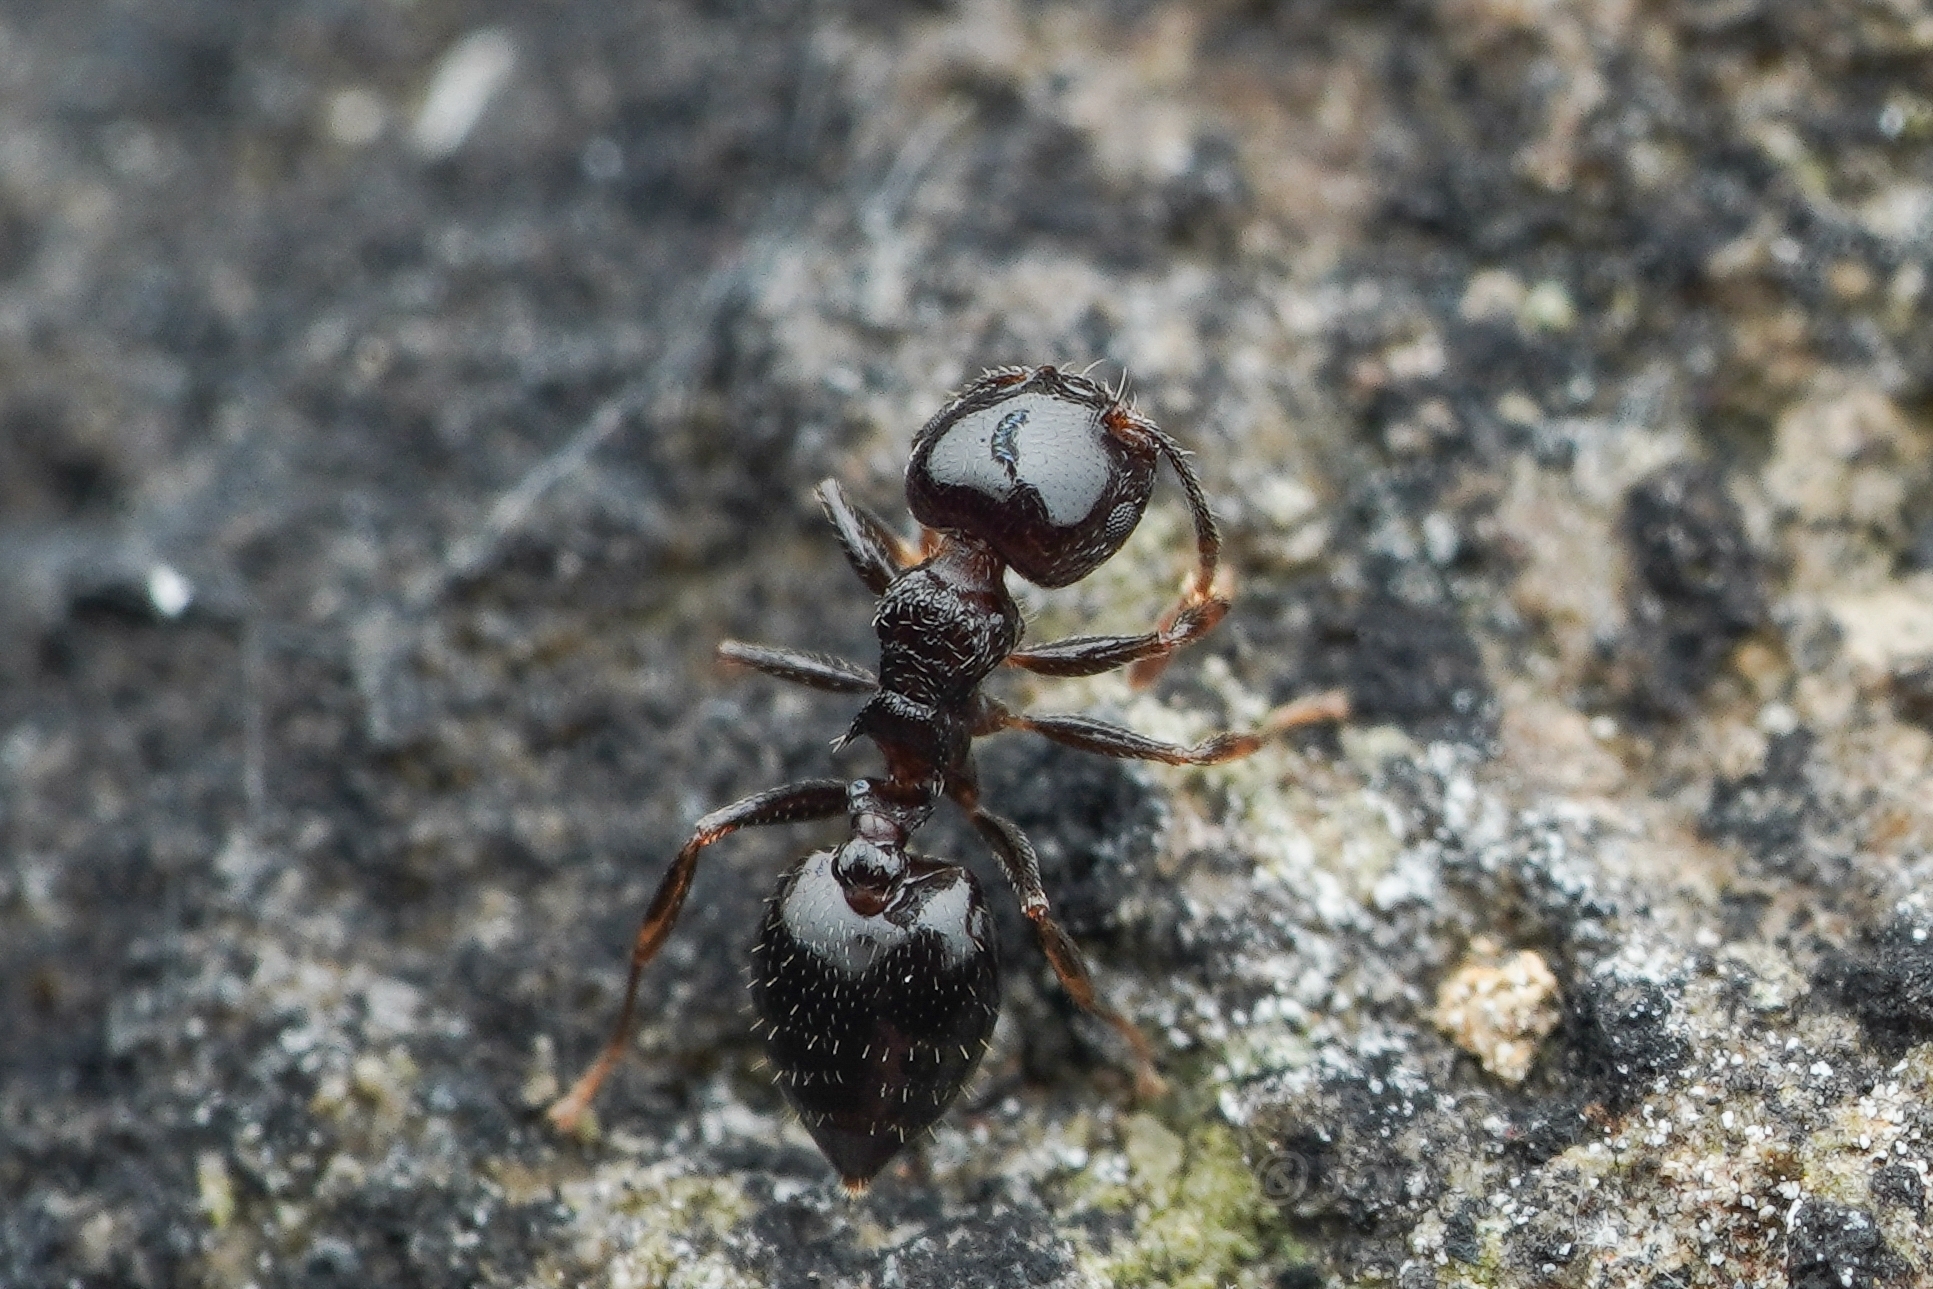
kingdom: Animalia
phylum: Arthropoda
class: Insecta
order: Hymenoptera
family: Formicidae
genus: Crematogaster
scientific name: Crematogaster
